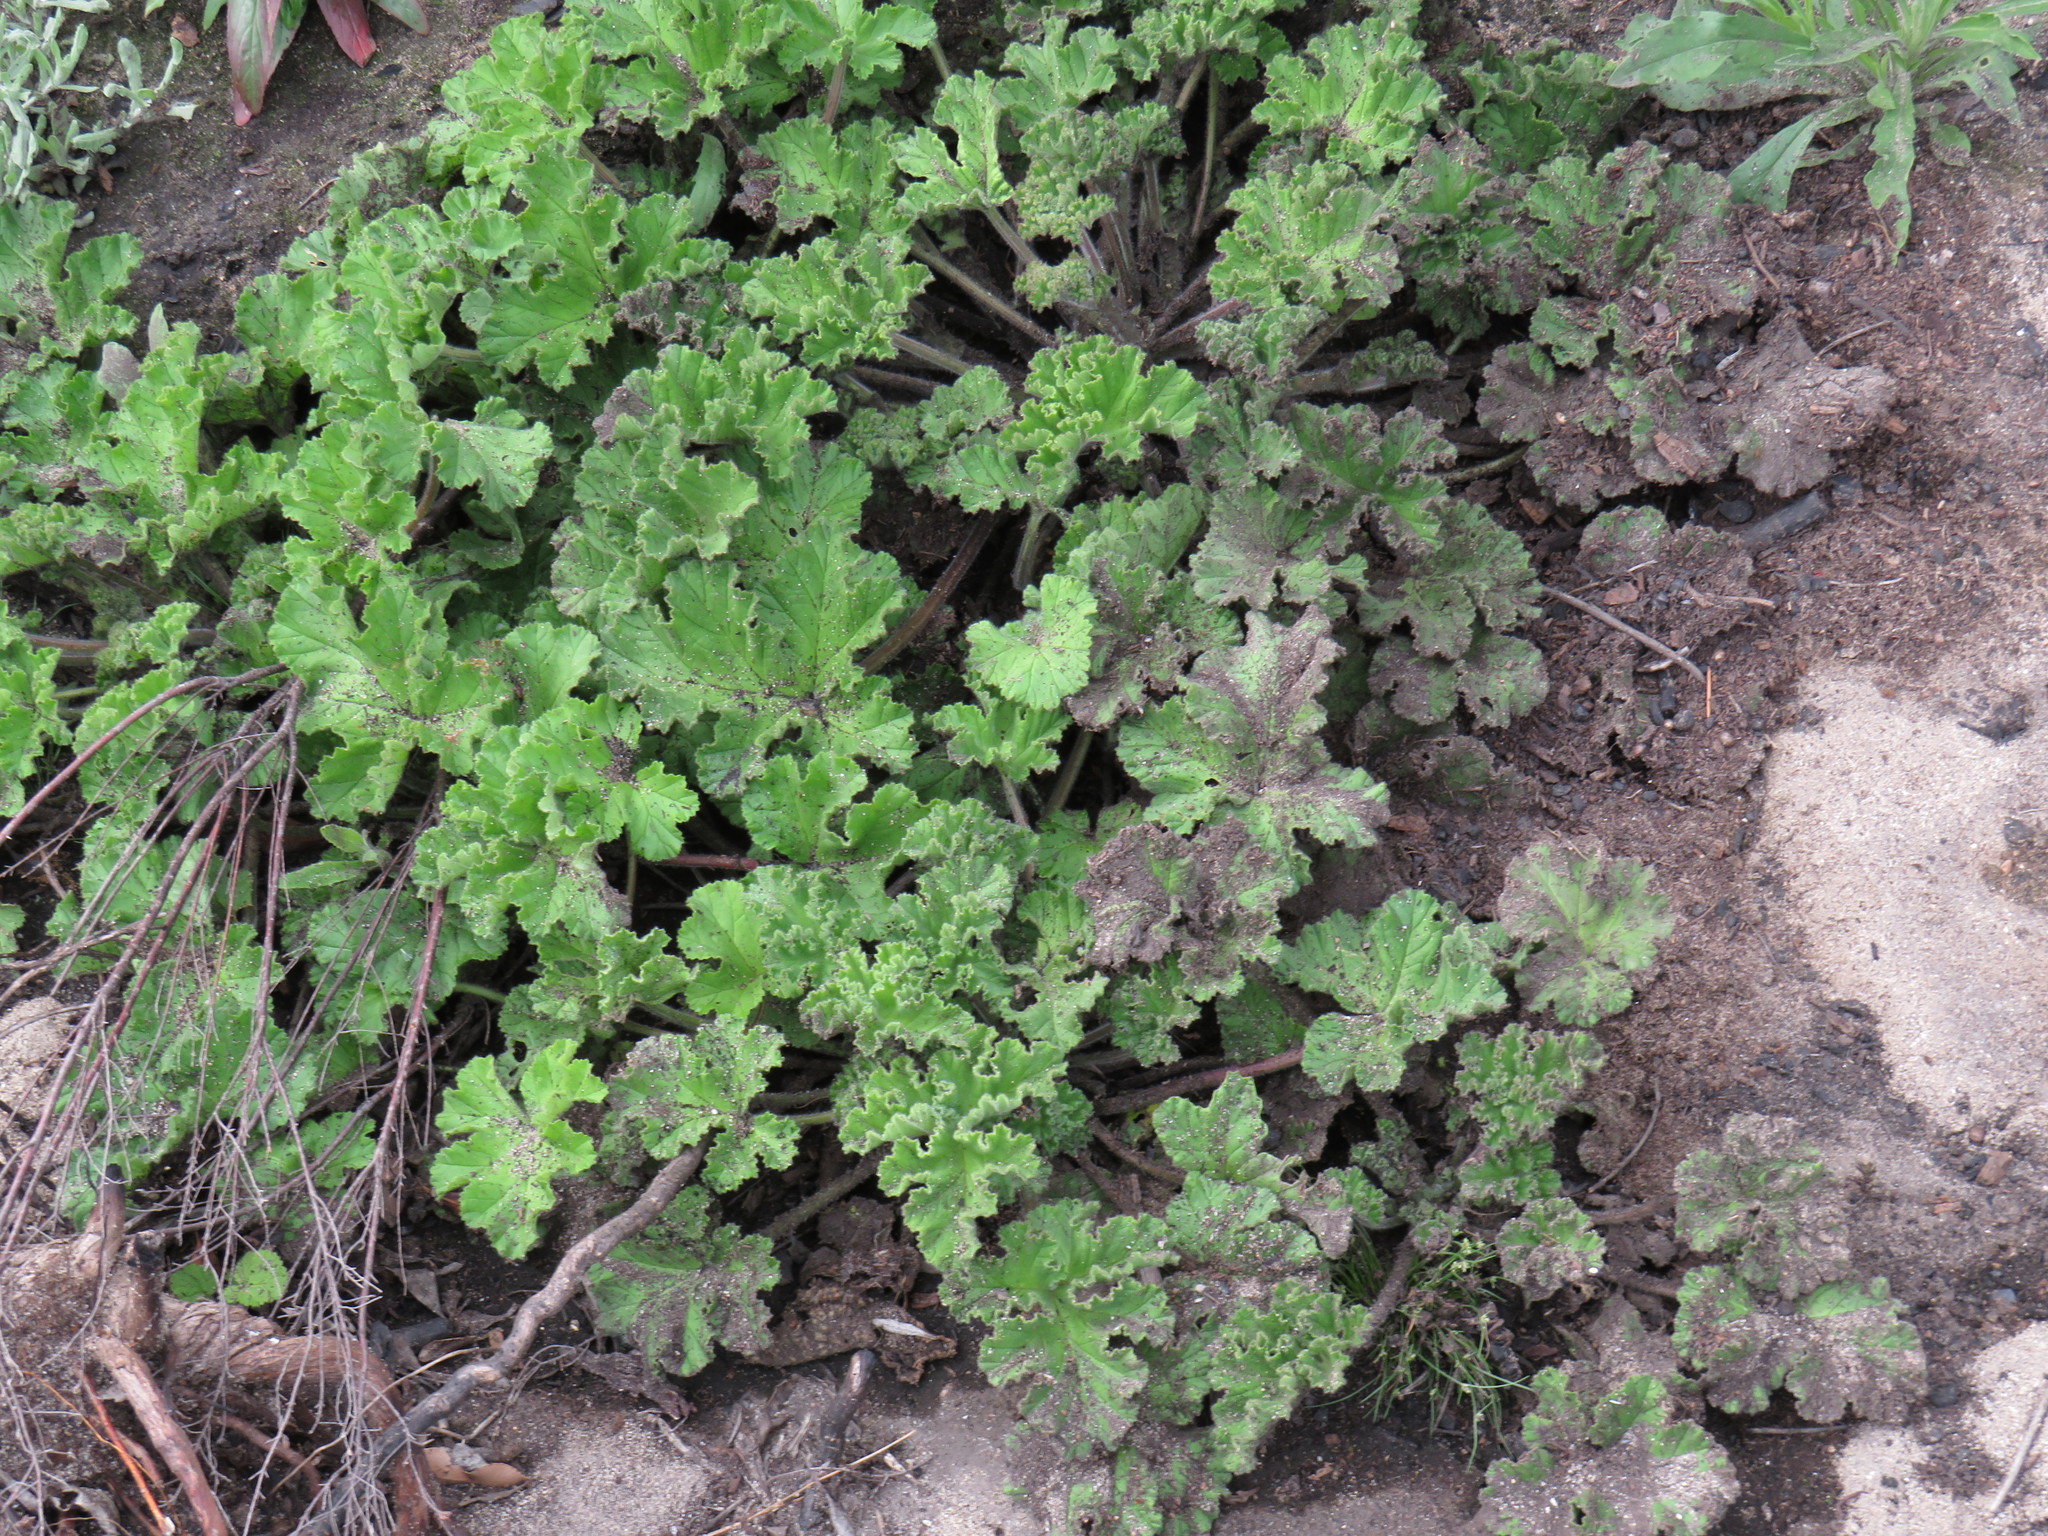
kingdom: Plantae
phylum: Tracheophyta
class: Magnoliopsida
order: Geraniales
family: Geraniaceae
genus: Pelargonium
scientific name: Pelargonium capitatum
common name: Rose scented geranium
